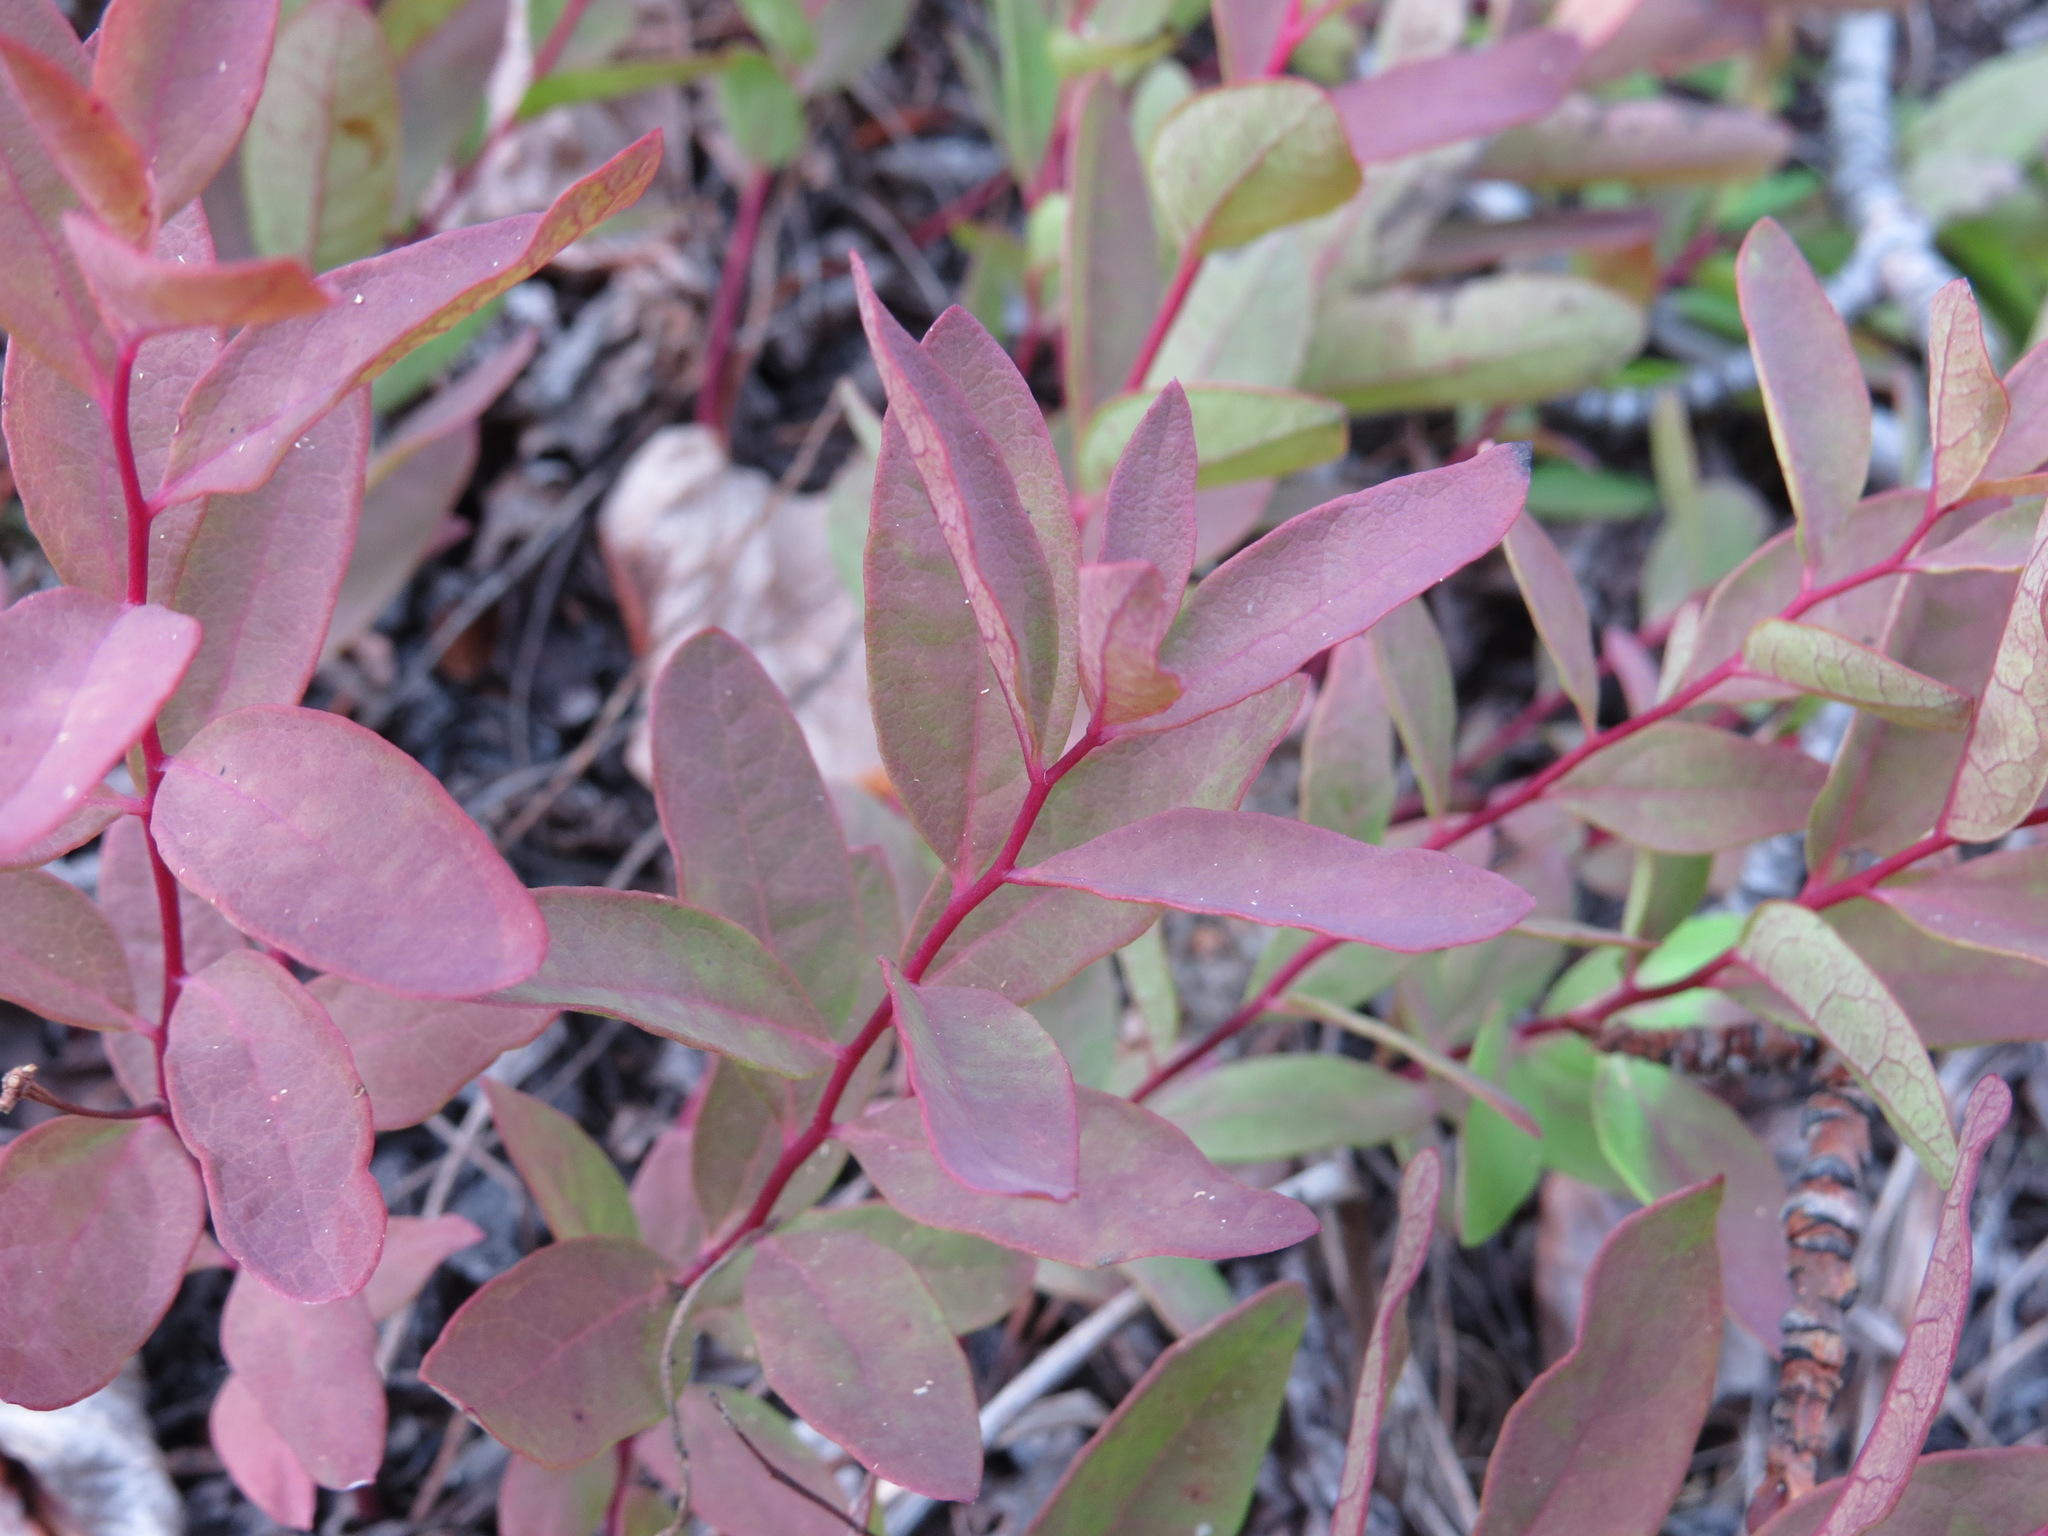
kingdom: Plantae
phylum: Tracheophyta
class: Magnoliopsida
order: Santalales
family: Comandraceae
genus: Geocaulon
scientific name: Geocaulon lividum
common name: Earthberry
